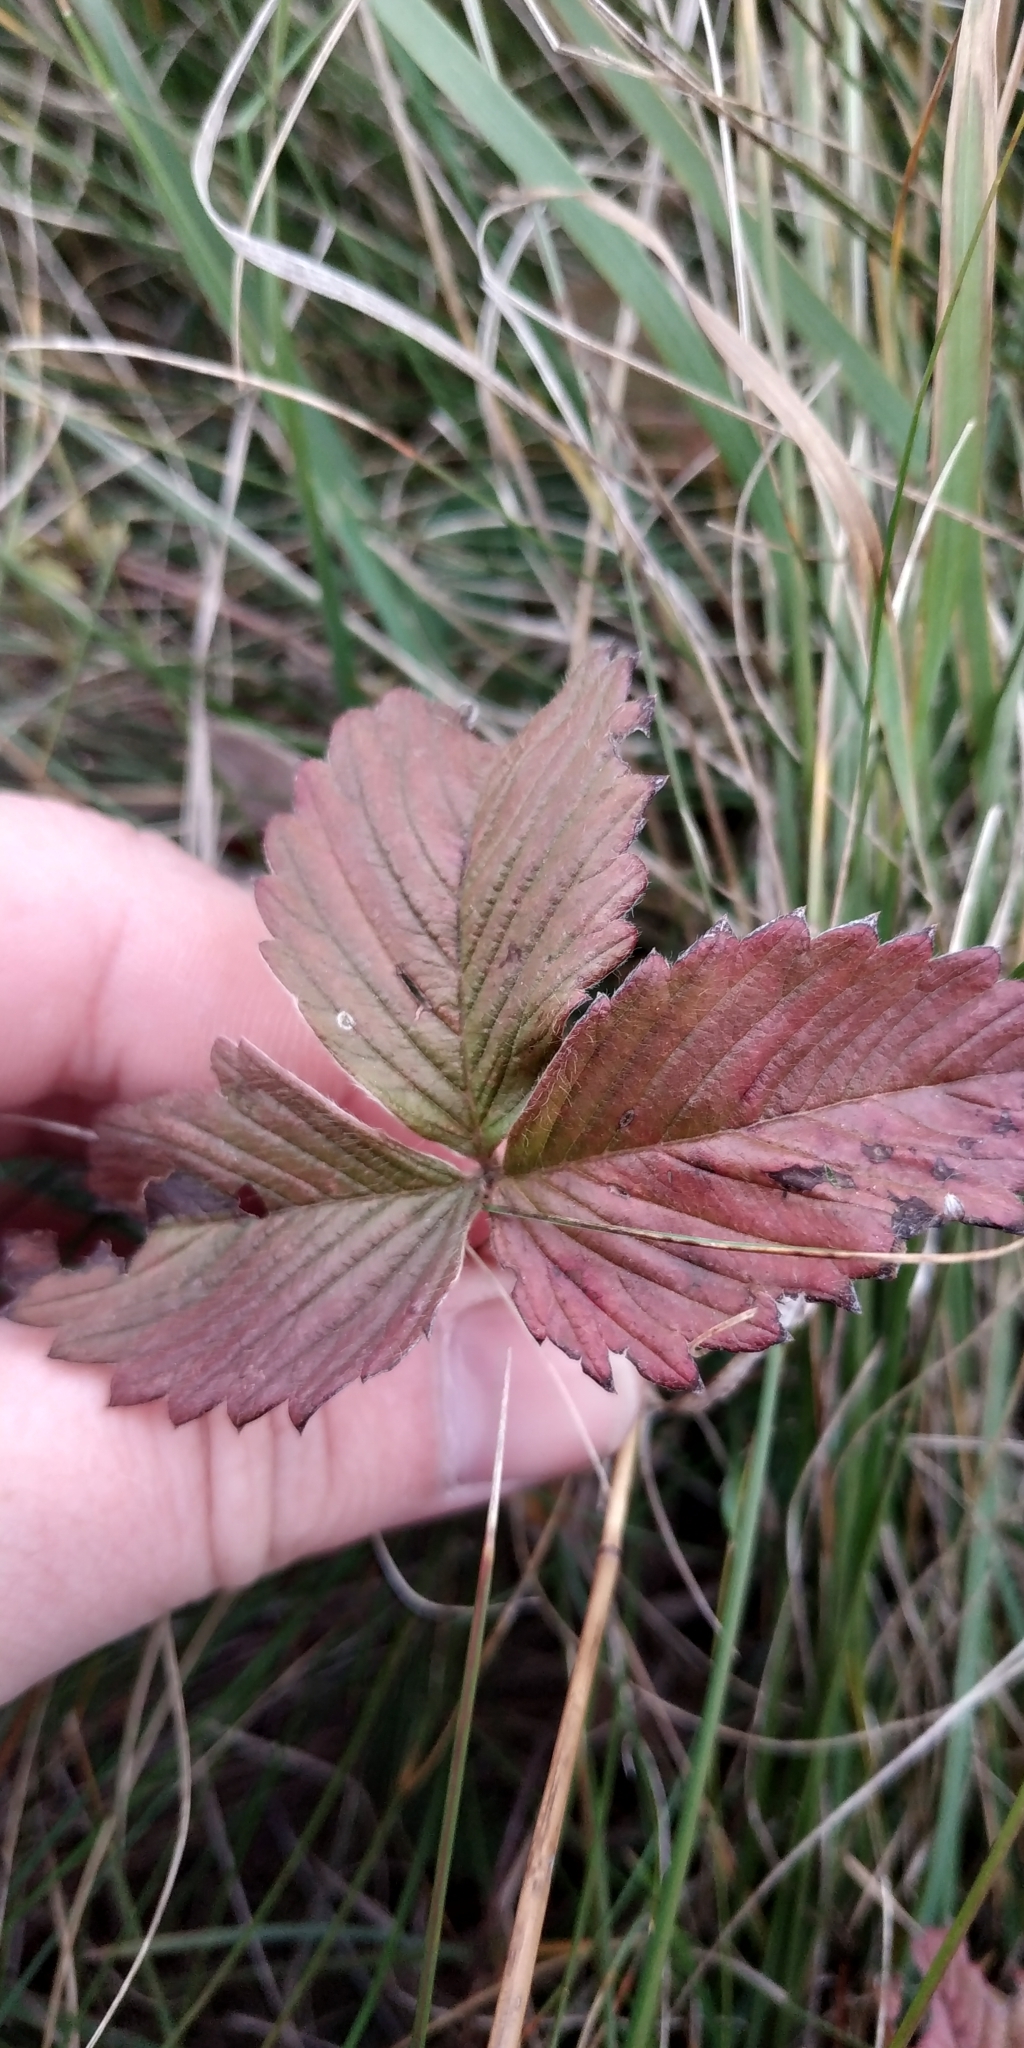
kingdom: Plantae
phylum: Tracheophyta
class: Magnoliopsida
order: Rosales
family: Rosaceae
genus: Fragaria
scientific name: Fragaria viridis
